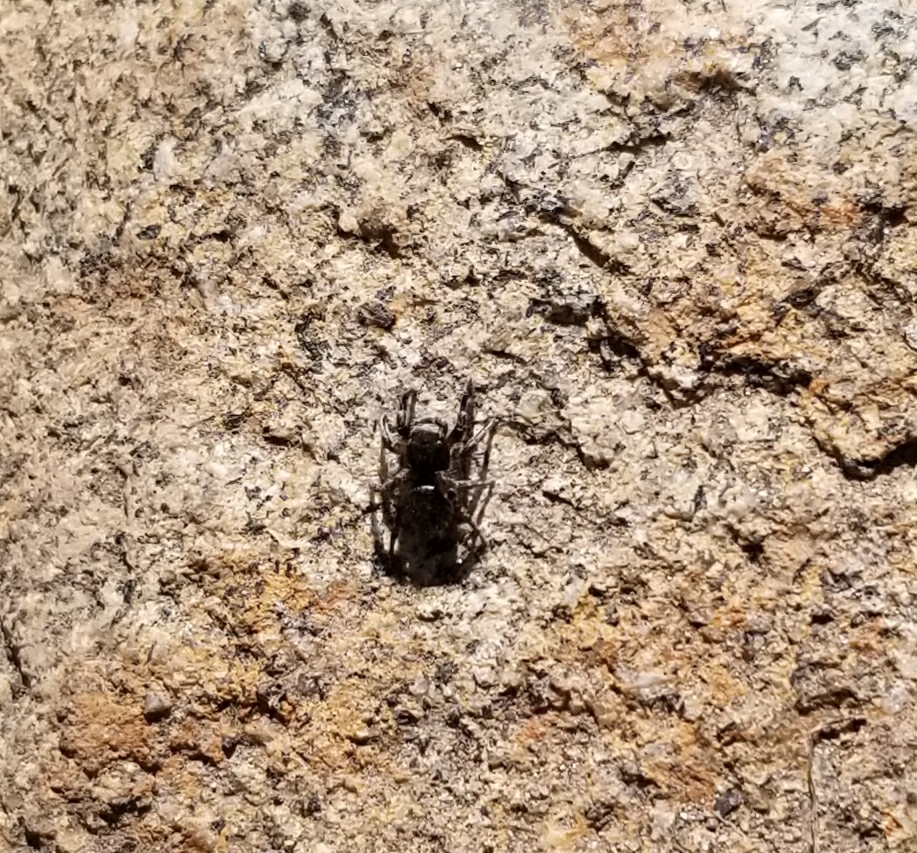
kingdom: Animalia
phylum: Arthropoda
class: Arachnida
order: Araneae
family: Salticidae
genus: Habronattus
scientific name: Habronattus hirsutus
